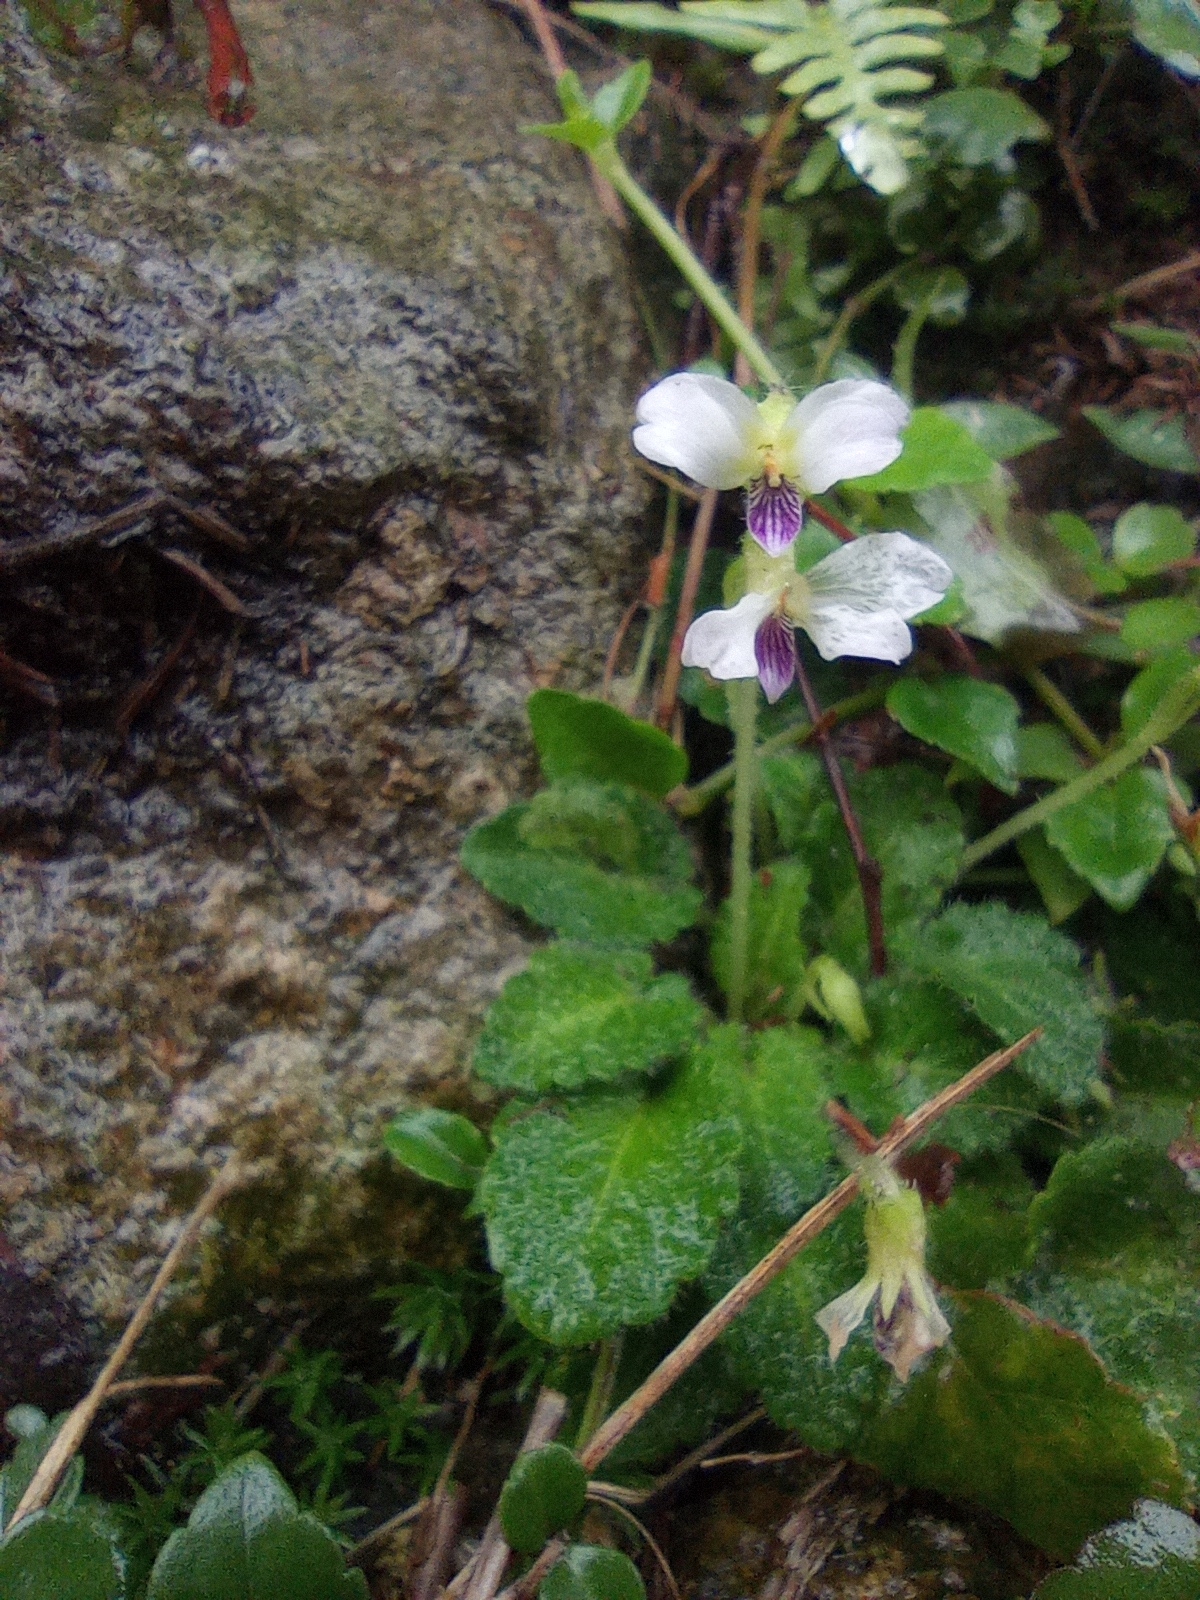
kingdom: Plantae
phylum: Tracheophyta
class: Magnoliopsida
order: Malpighiales
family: Violaceae
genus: Viola
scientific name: Viola nagasawae
